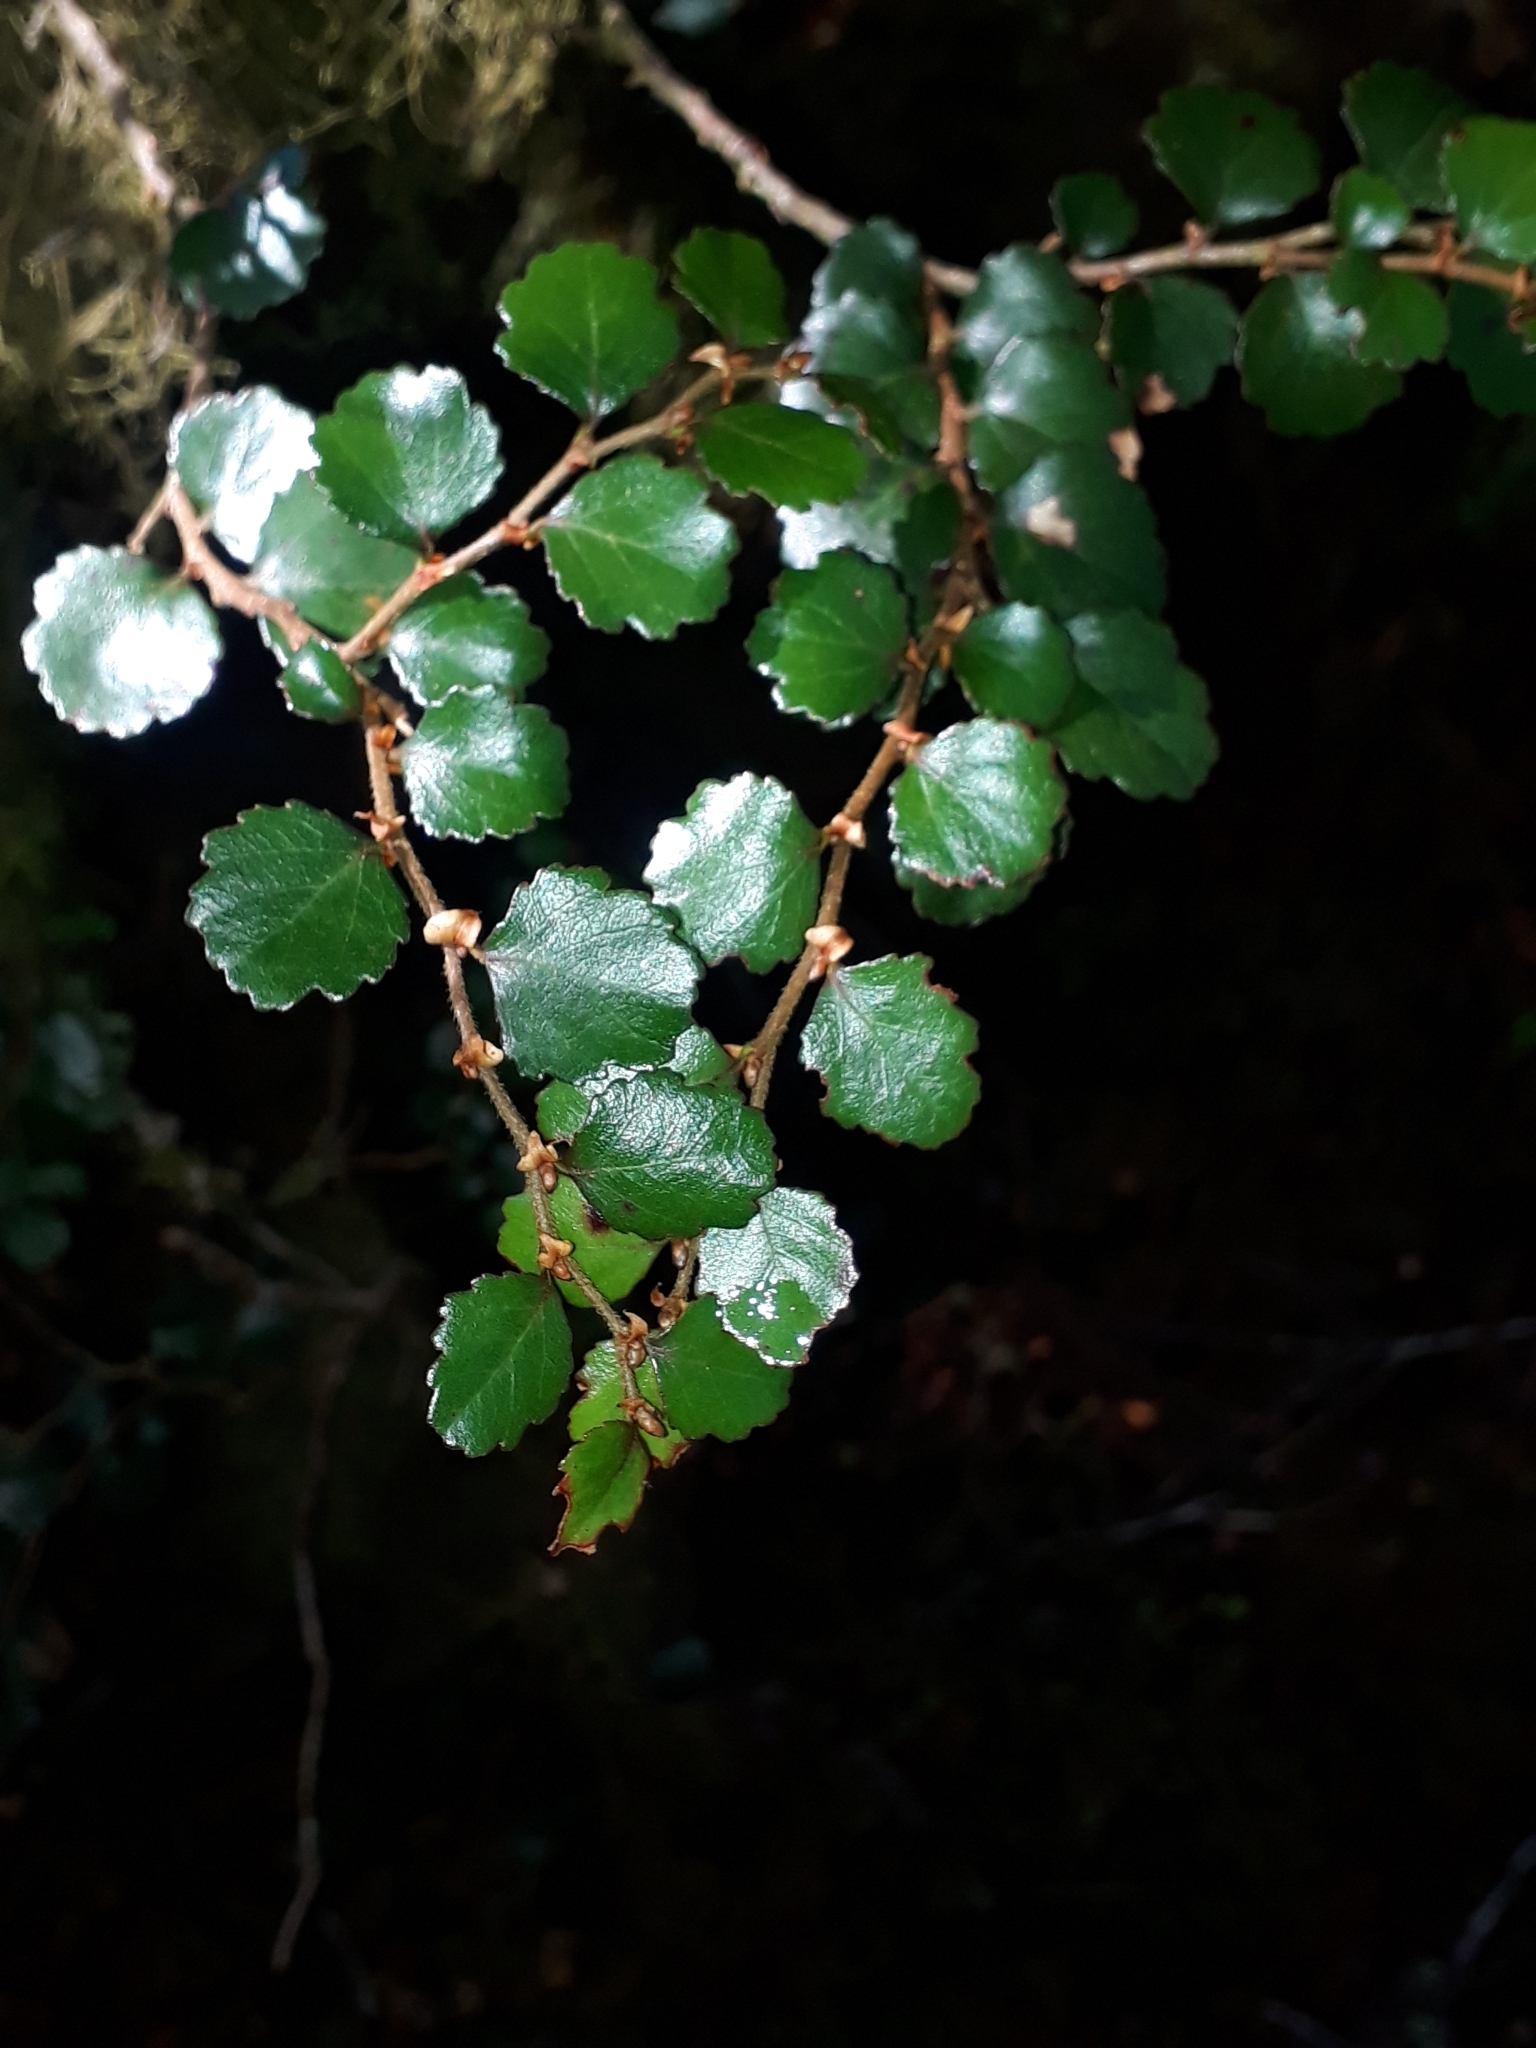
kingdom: Plantae
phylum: Tracheophyta
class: Magnoliopsida
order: Fagales
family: Nothofagaceae
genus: Nothofagus
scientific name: Nothofagus menziesii
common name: Silver beech
